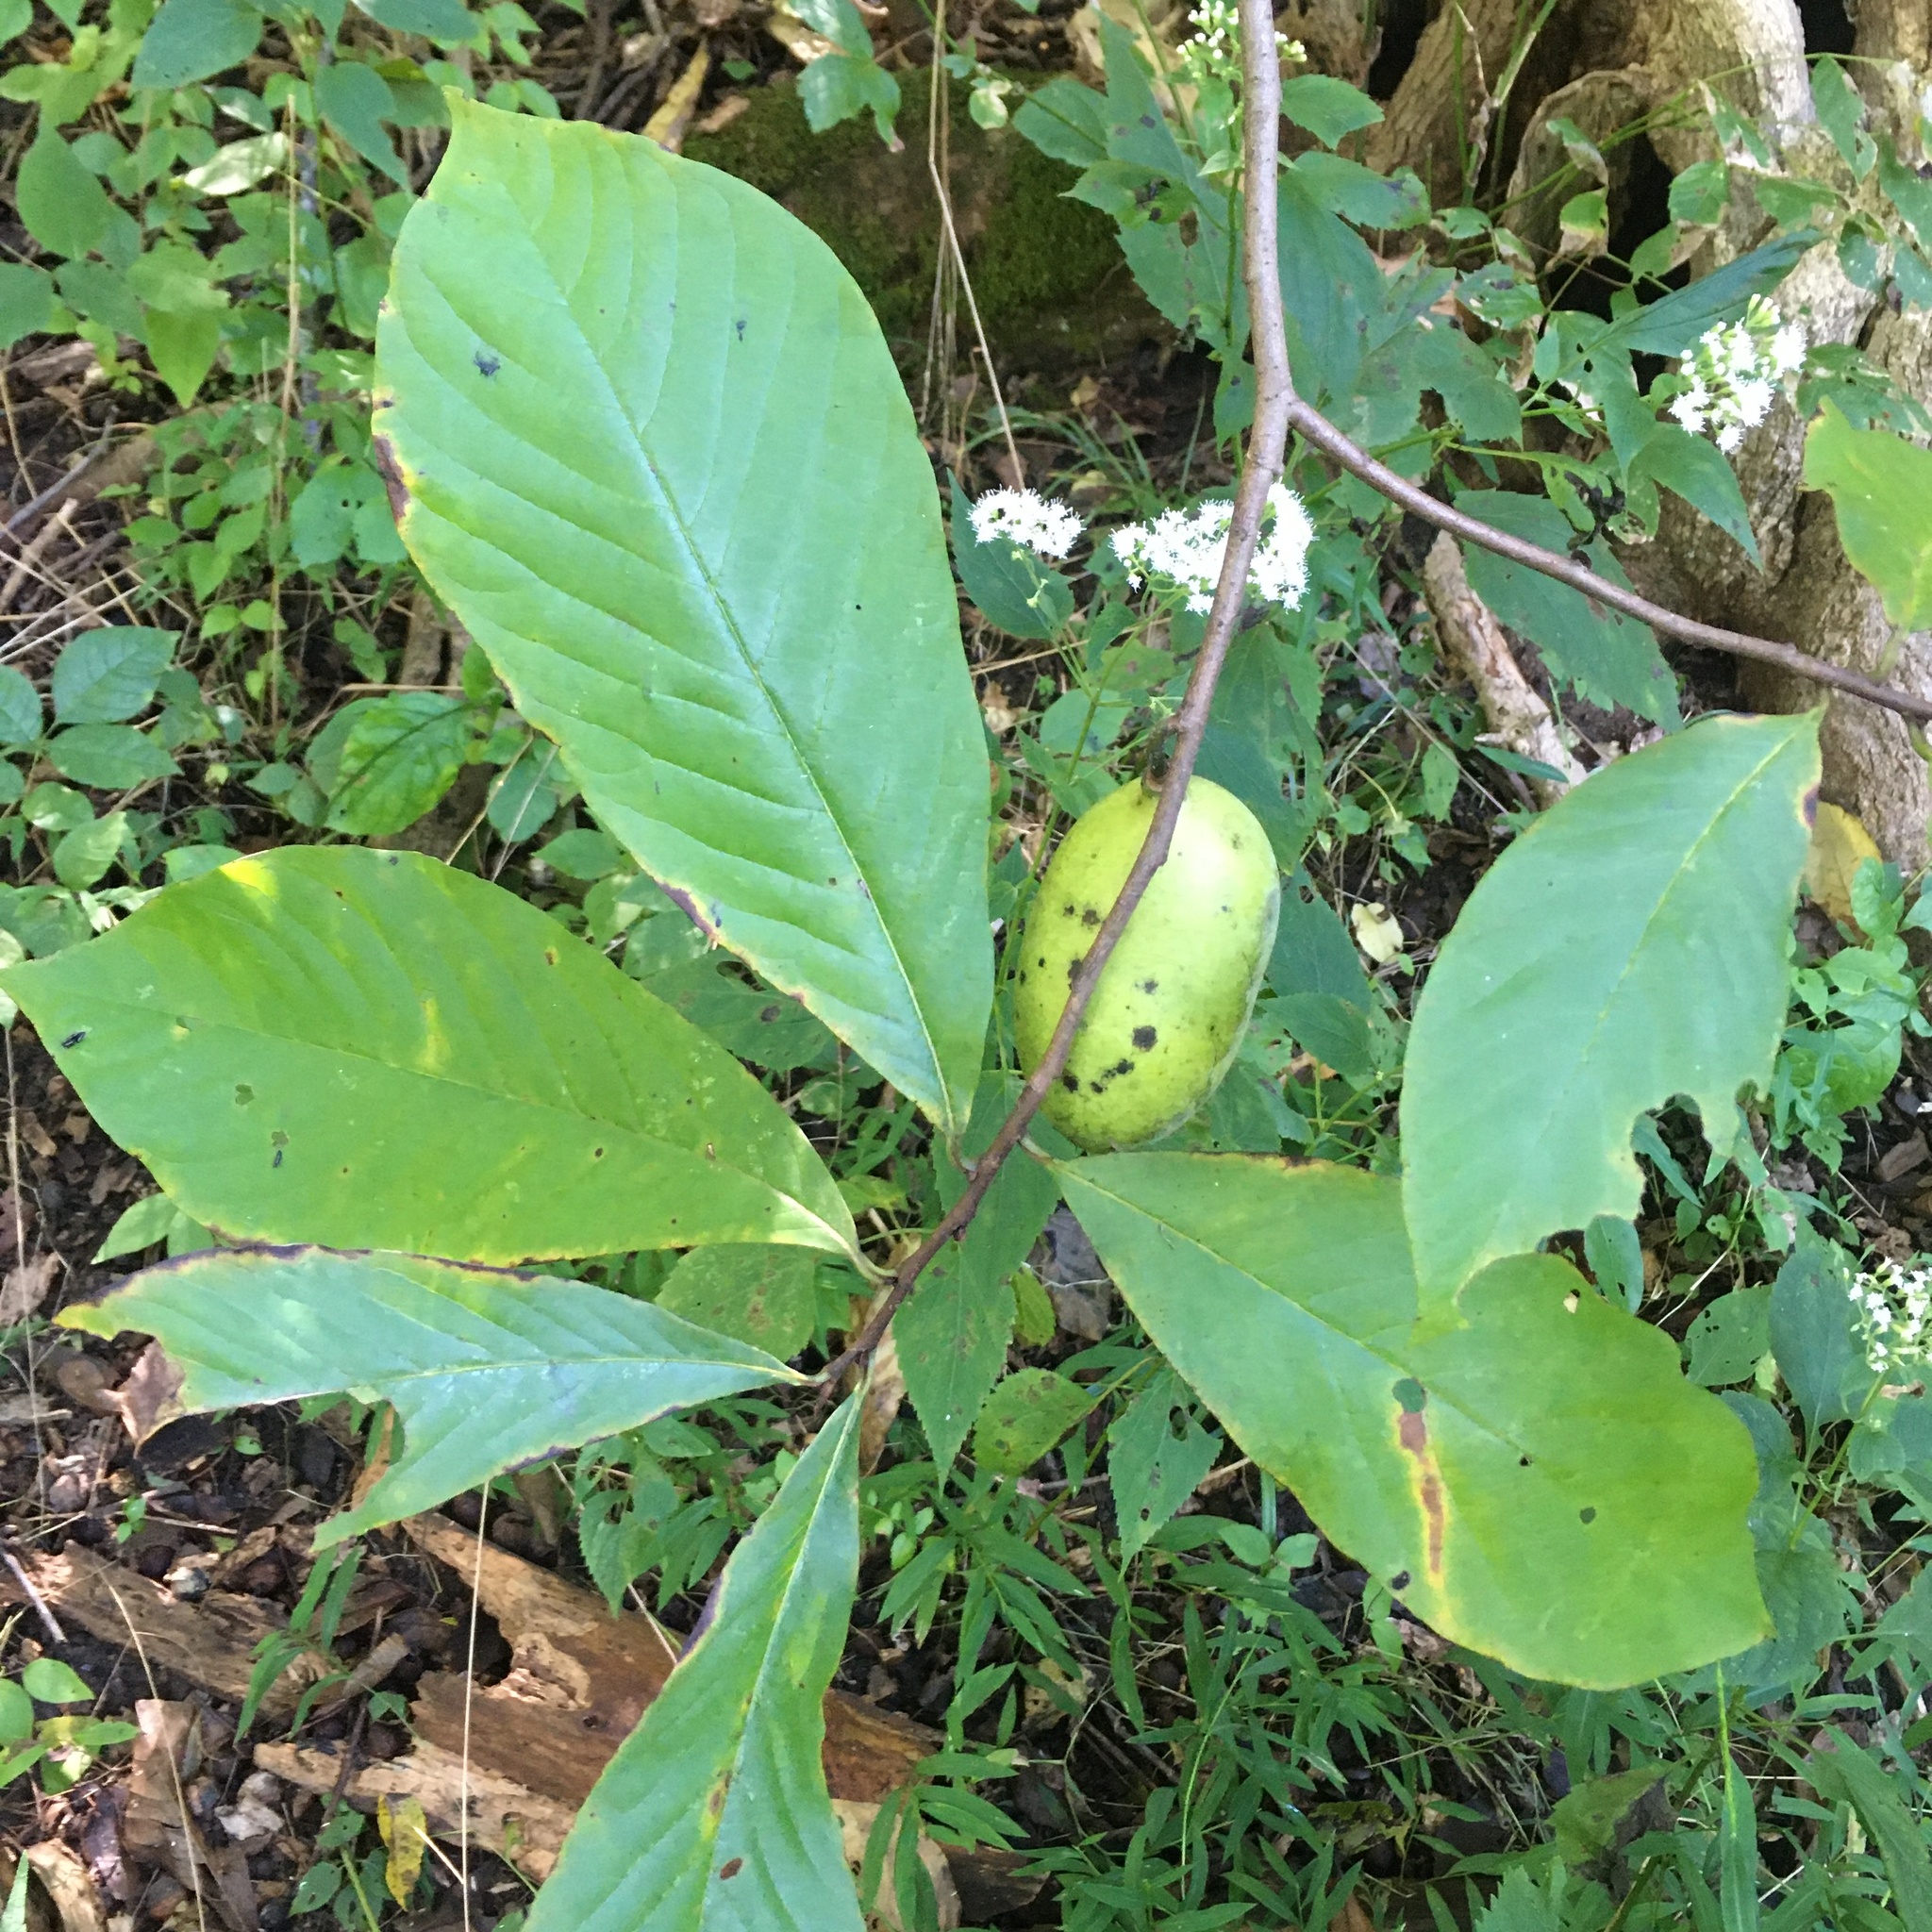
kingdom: Plantae
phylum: Tracheophyta
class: Magnoliopsida
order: Magnoliales
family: Annonaceae
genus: Asimina
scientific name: Asimina triloba
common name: Dog-banana
